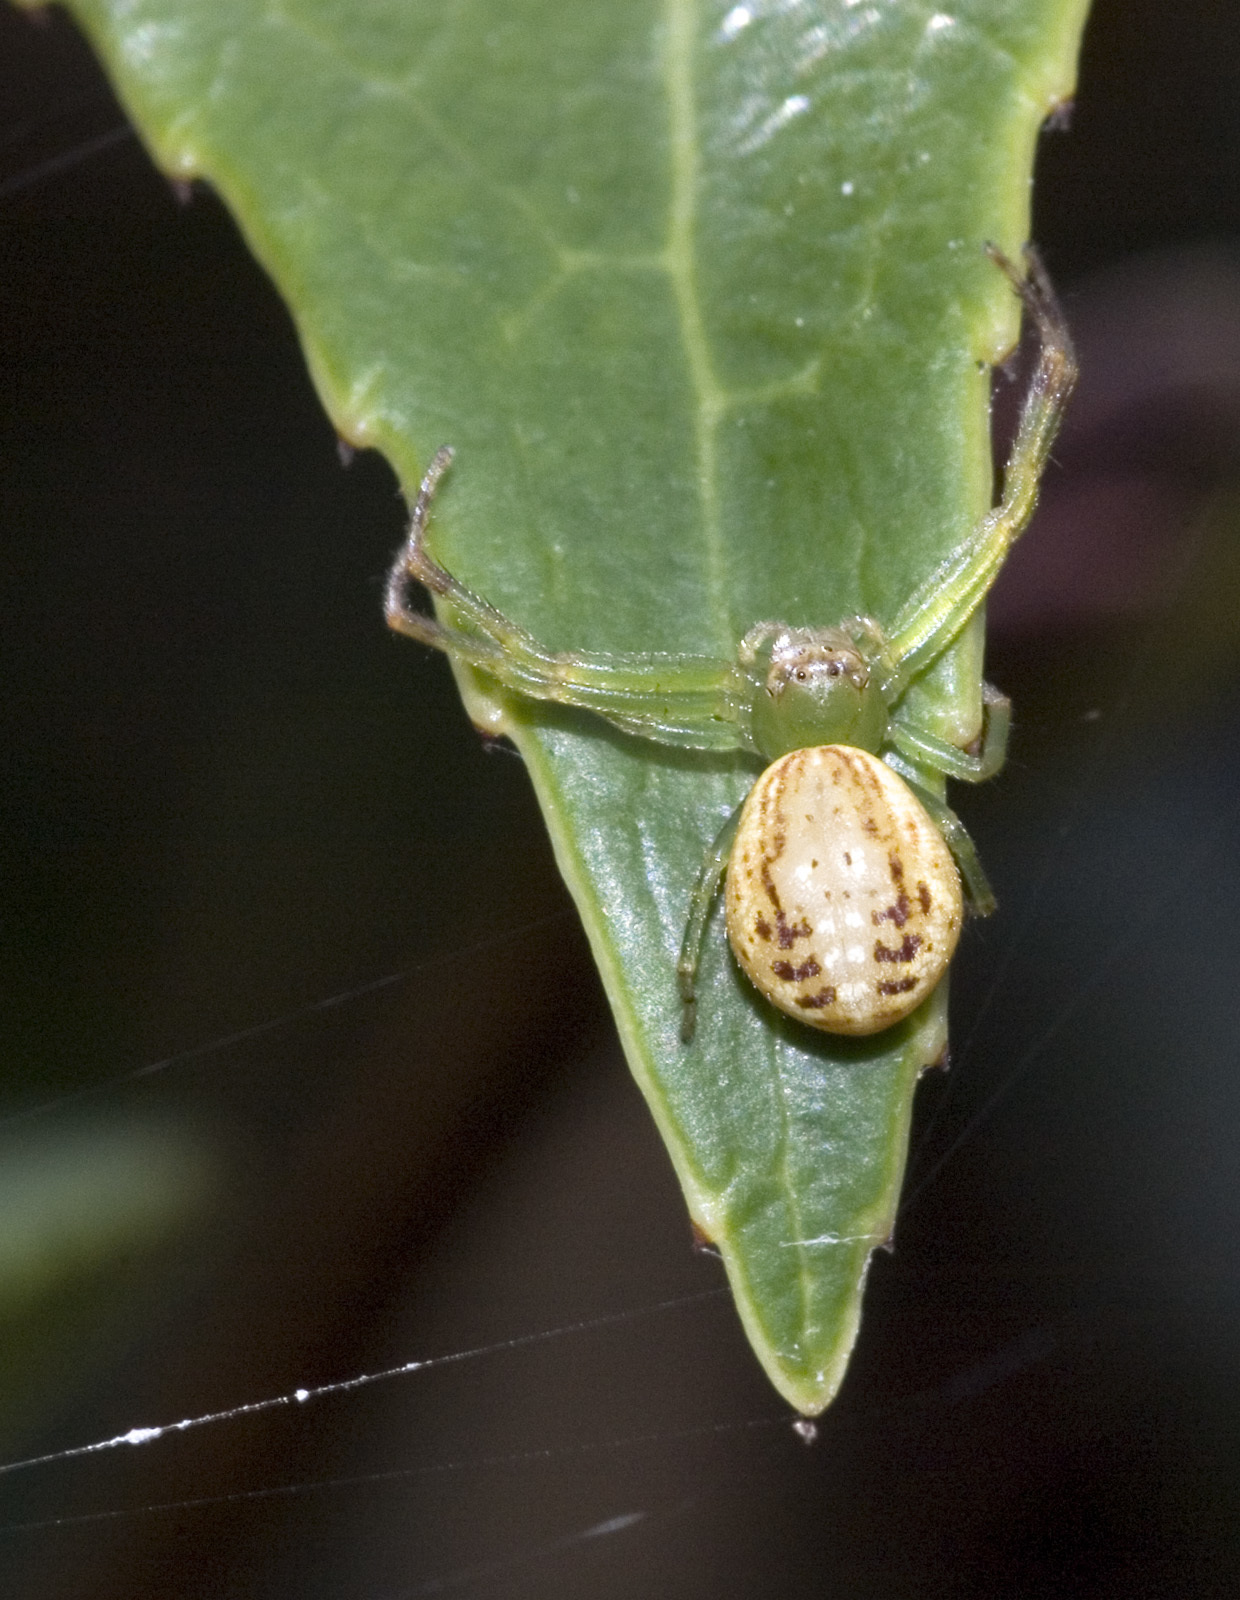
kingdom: Animalia
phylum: Arthropoda
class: Arachnida
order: Araneae
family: Thomisidae
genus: Diaea
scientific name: Diaea ambara
